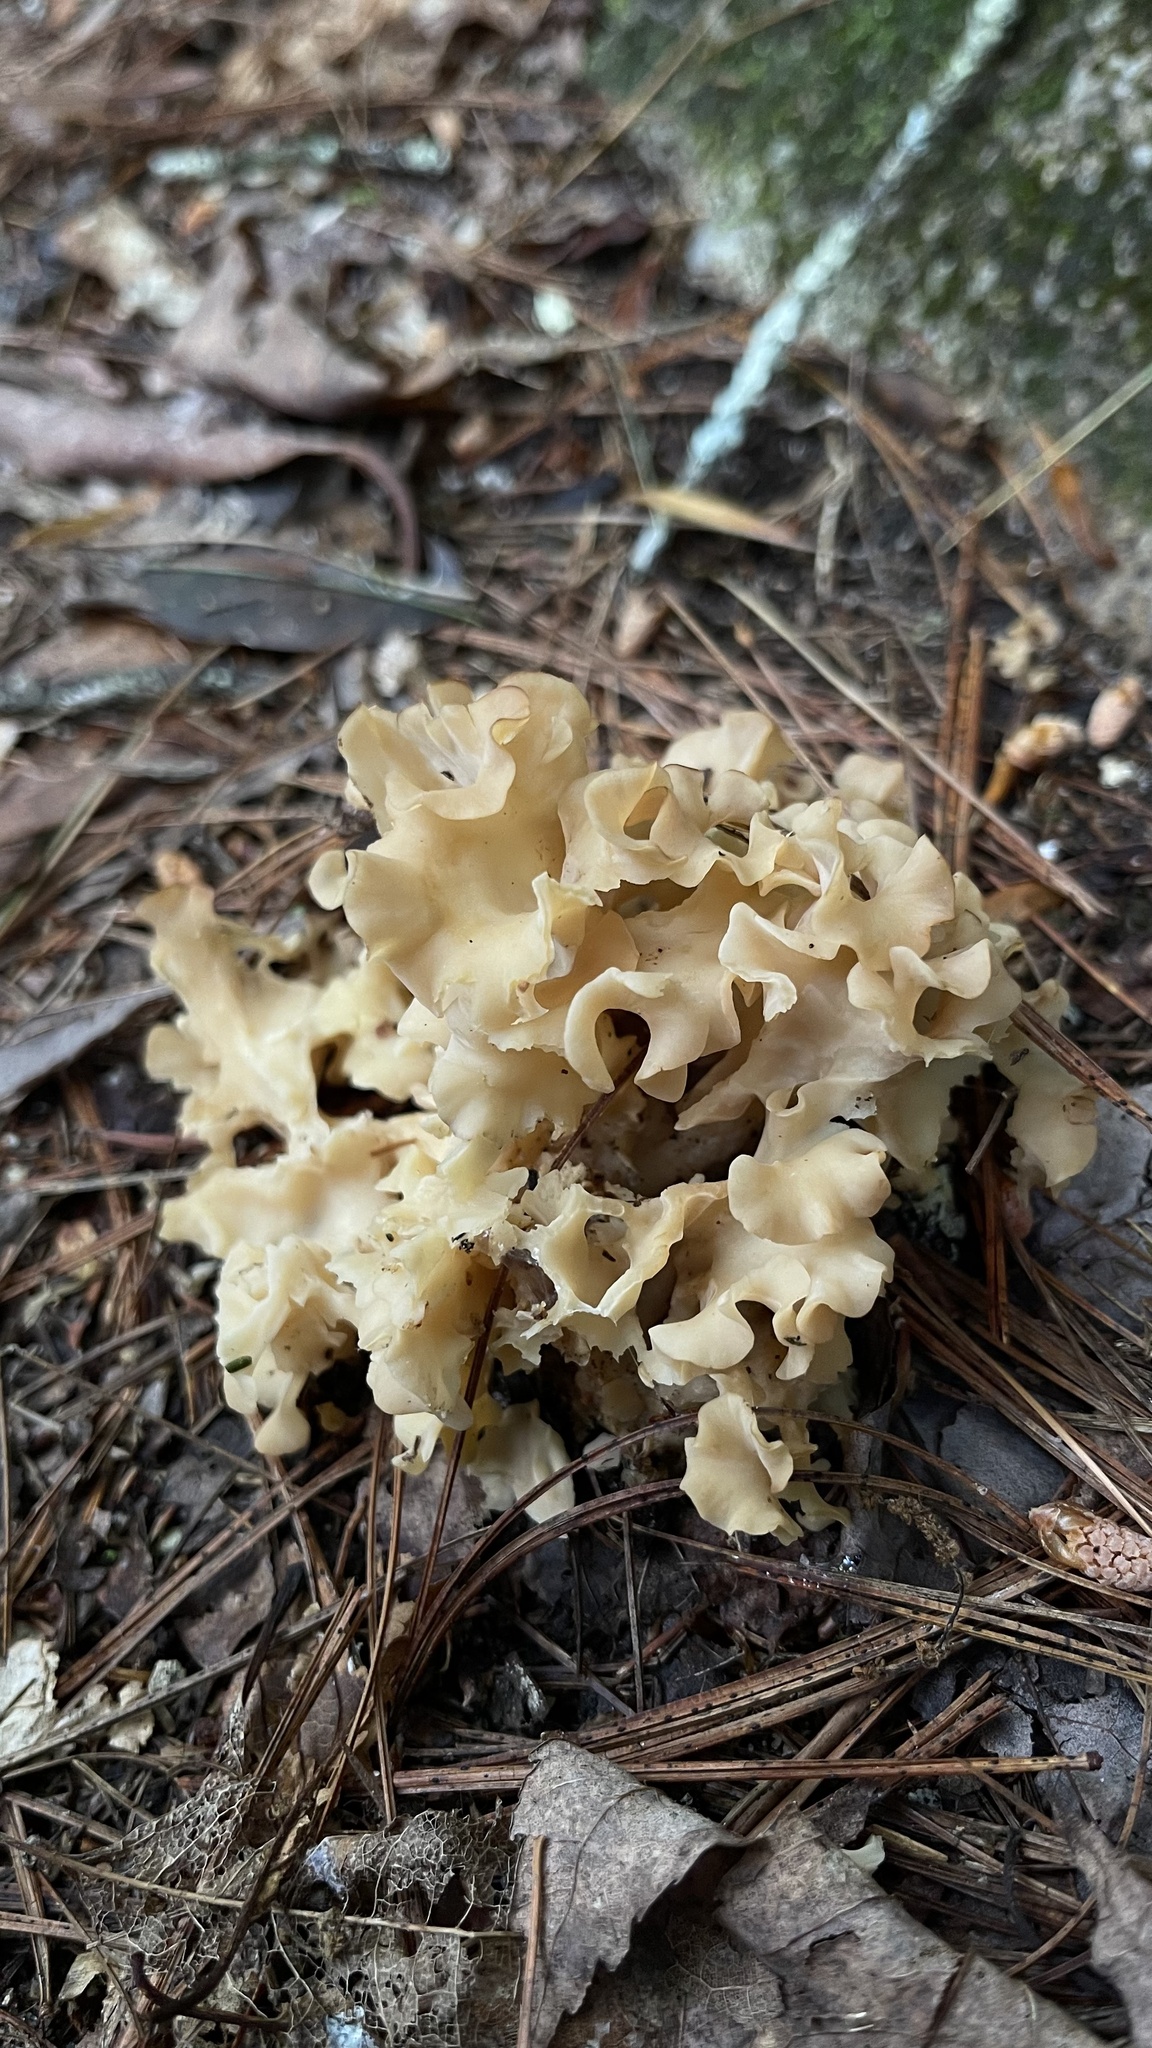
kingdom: Fungi
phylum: Basidiomycota
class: Agaricomycetes
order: Polyporales
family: Sparassidaceae
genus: Sparassis
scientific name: Sparassis americana
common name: American cauliflower mushroom
